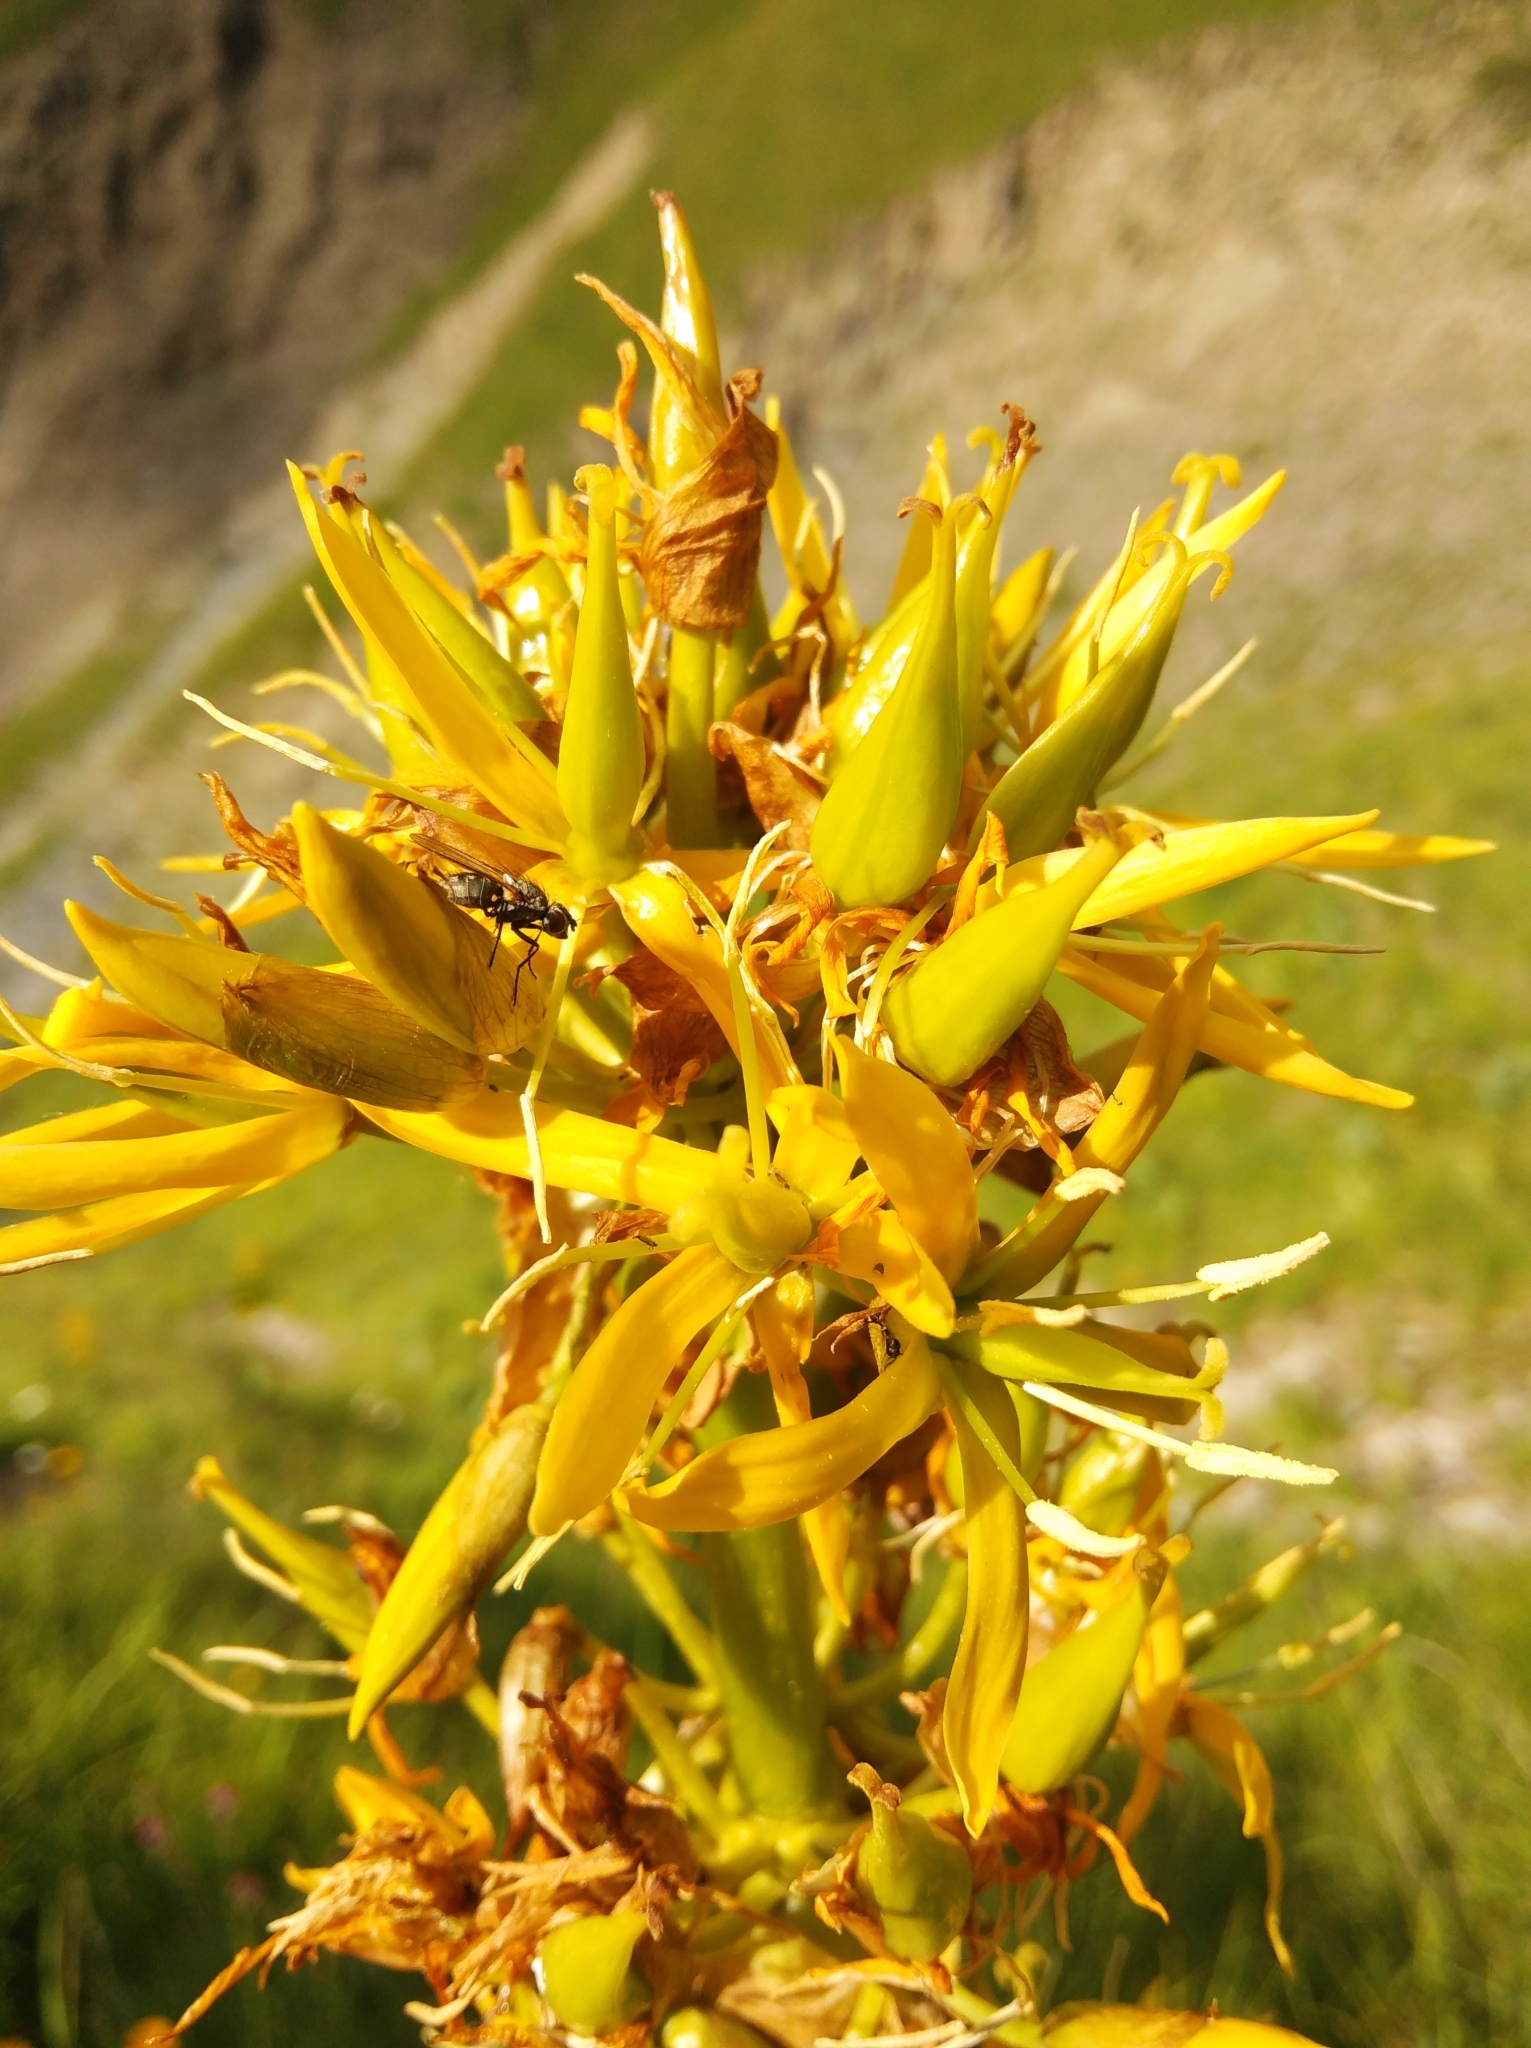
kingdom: Plantae
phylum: Tracheophyta
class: Magnoliopsida
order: Gentianales
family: Gentianaceae
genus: Gentiana
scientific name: Gentiana lutea
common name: Great yellow gentian
